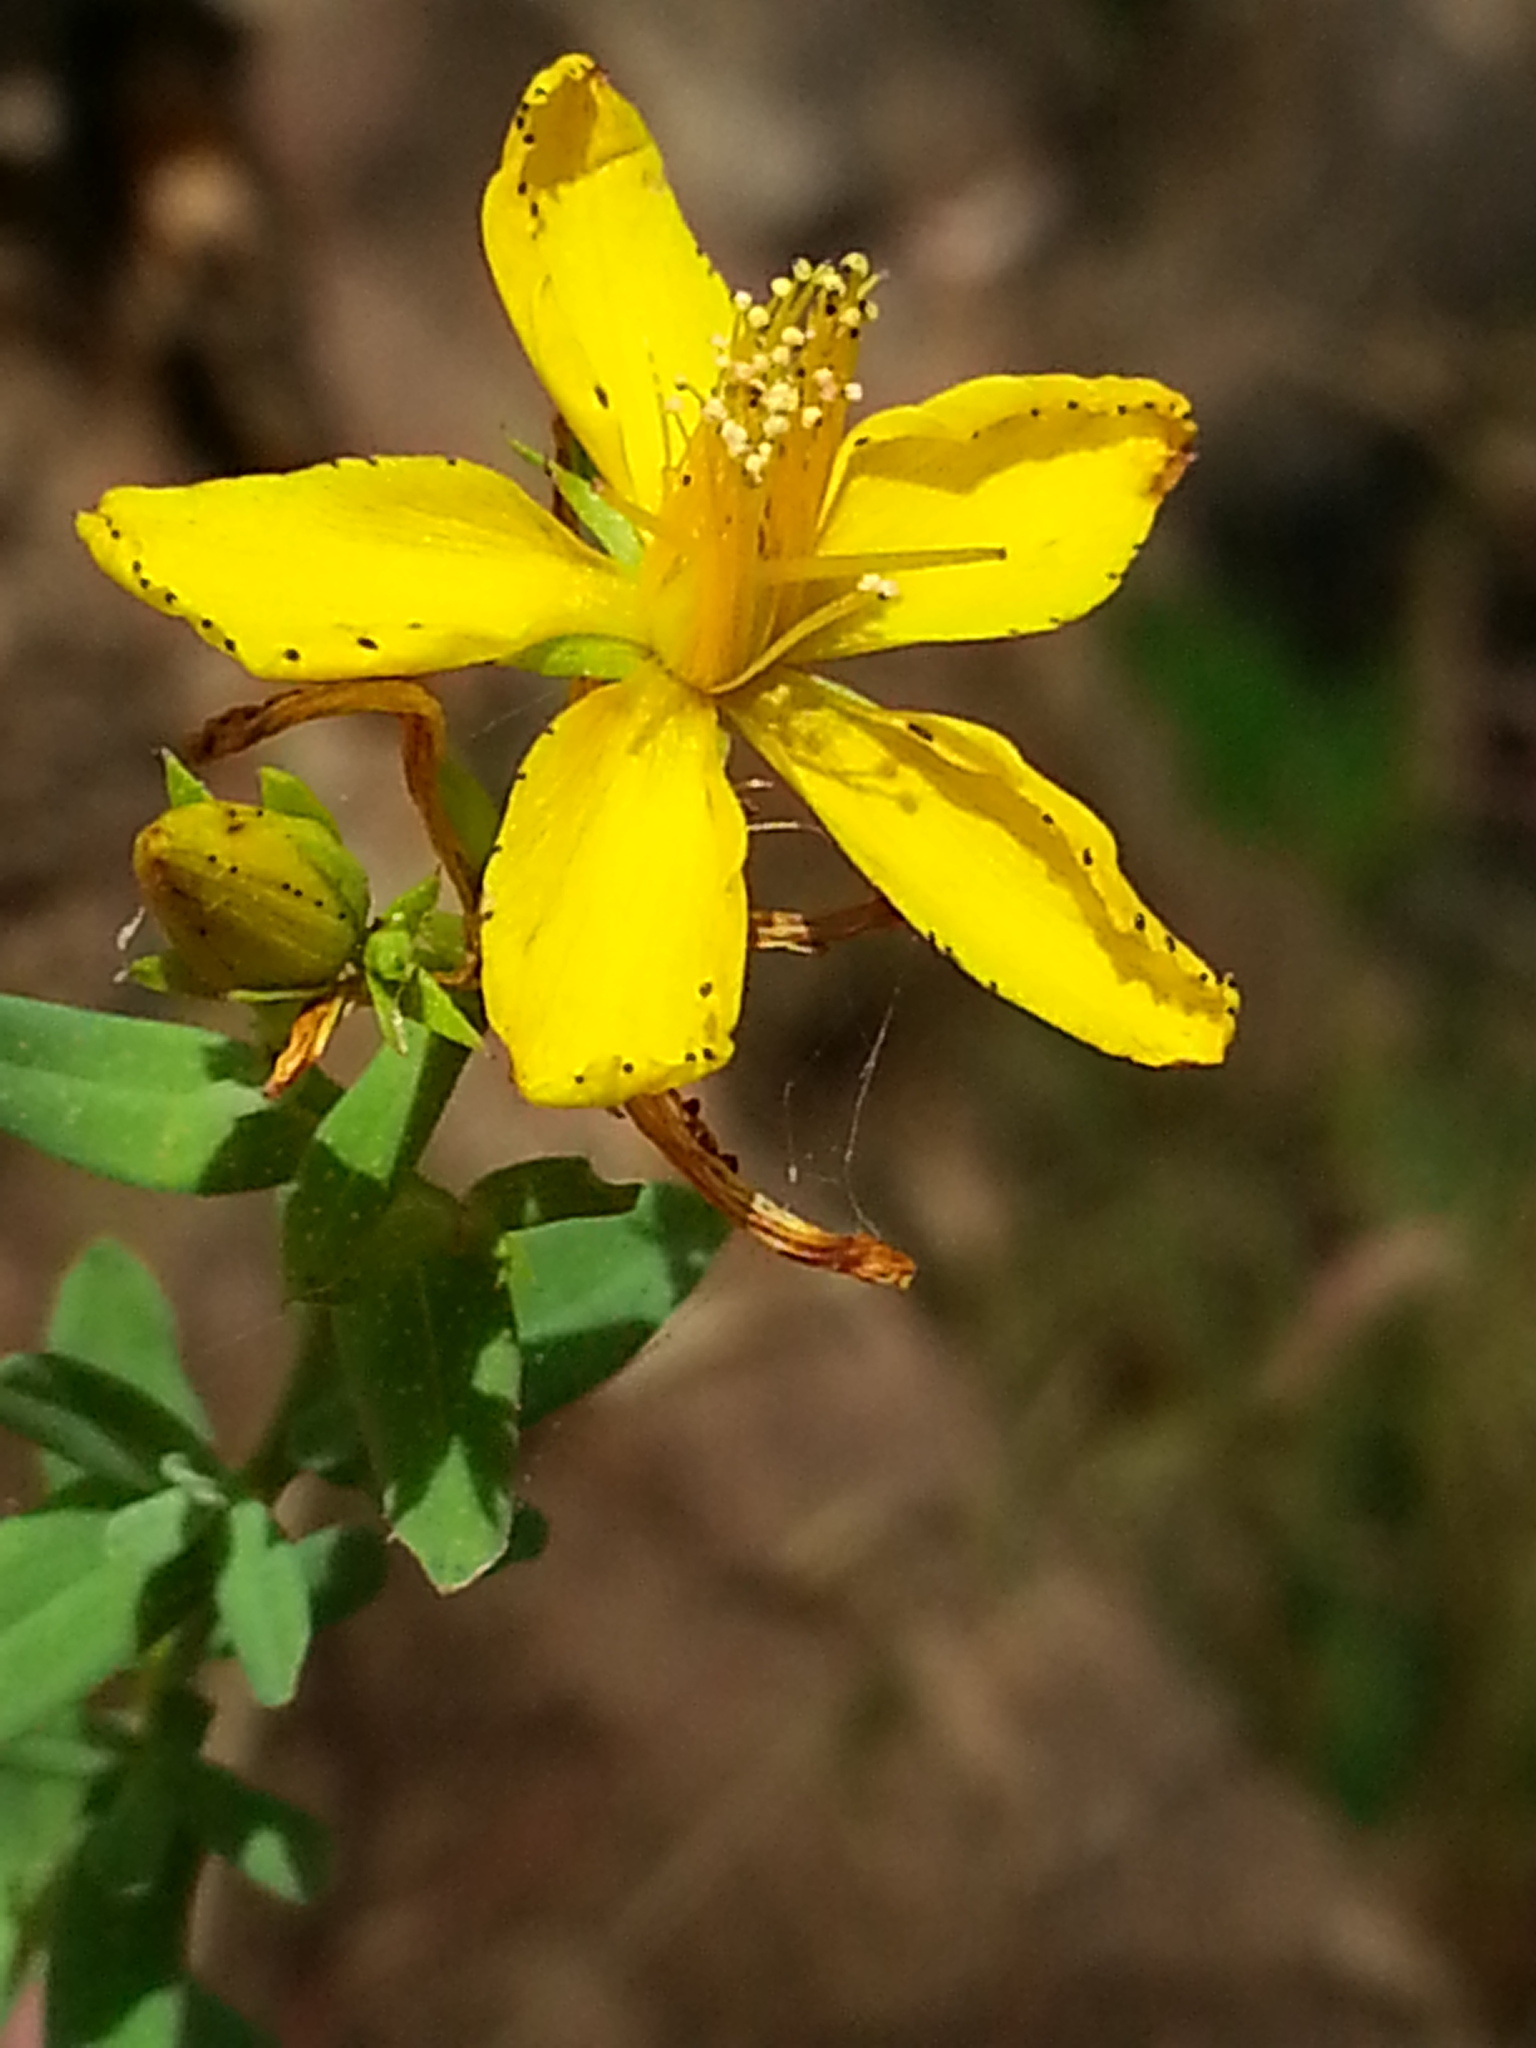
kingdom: Plantae
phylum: Tracheophyta
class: Magnoliopsida
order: Malpighiales
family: Hypericaceae
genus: Hypericum
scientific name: Hypericum perforatum
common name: Common st. johnswort
